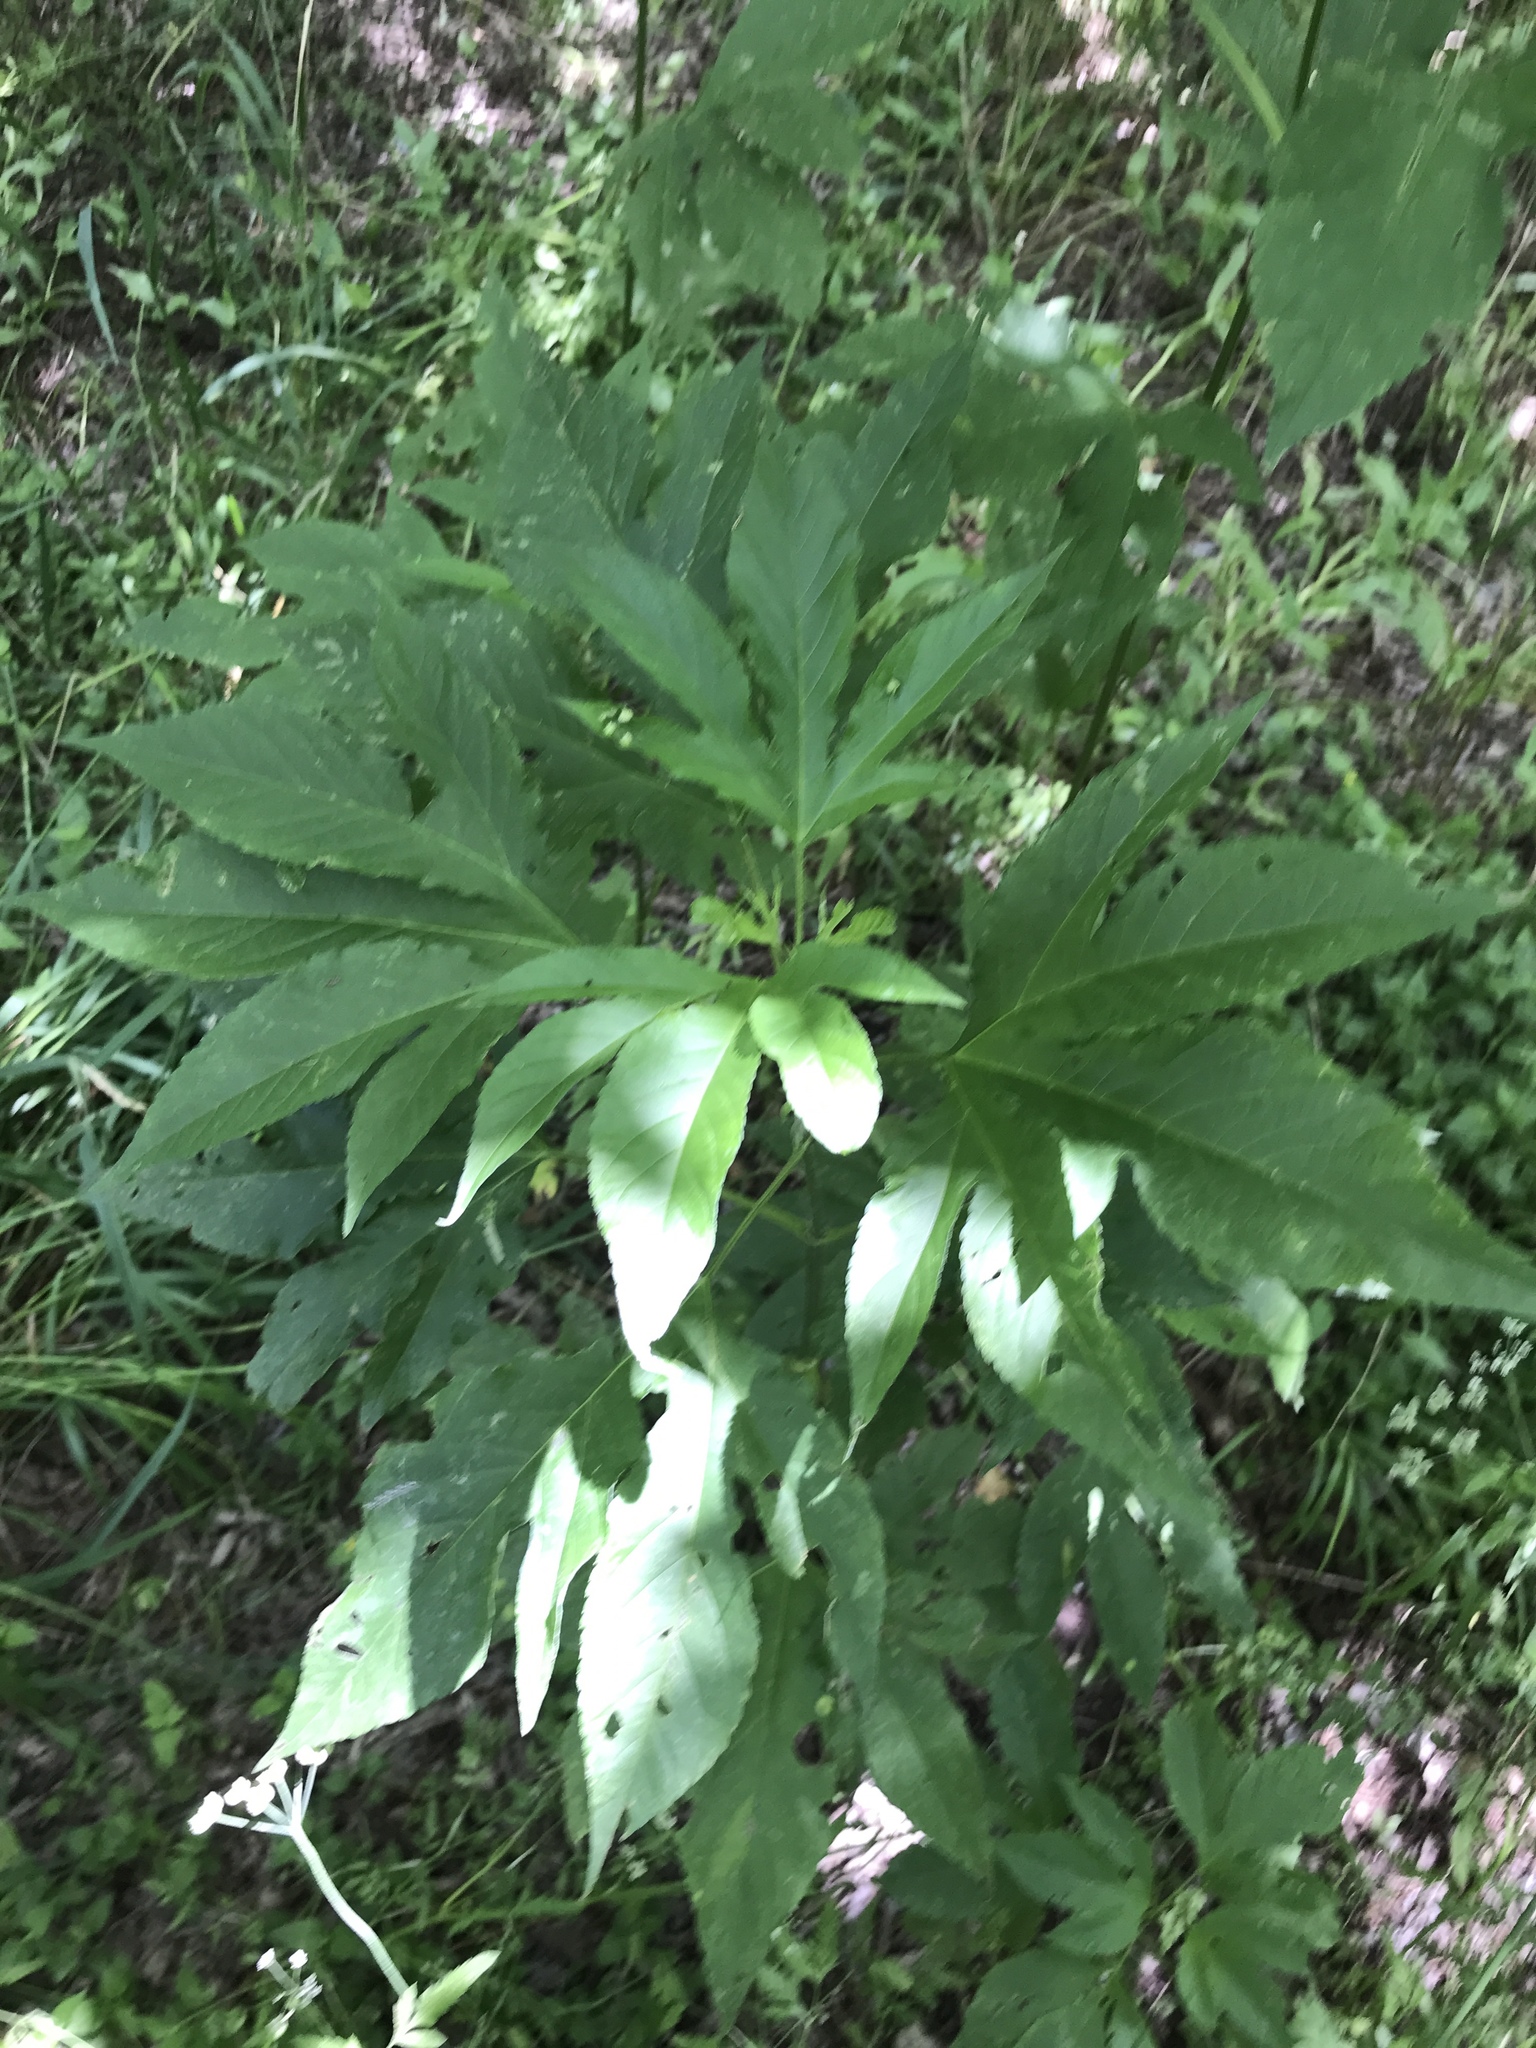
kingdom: Plantae
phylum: Tracheophyta
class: Magnoliopsida
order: Asterales
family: Asteraceae
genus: Ambrosia
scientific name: Ambrosia trifida
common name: Giant ragweed
